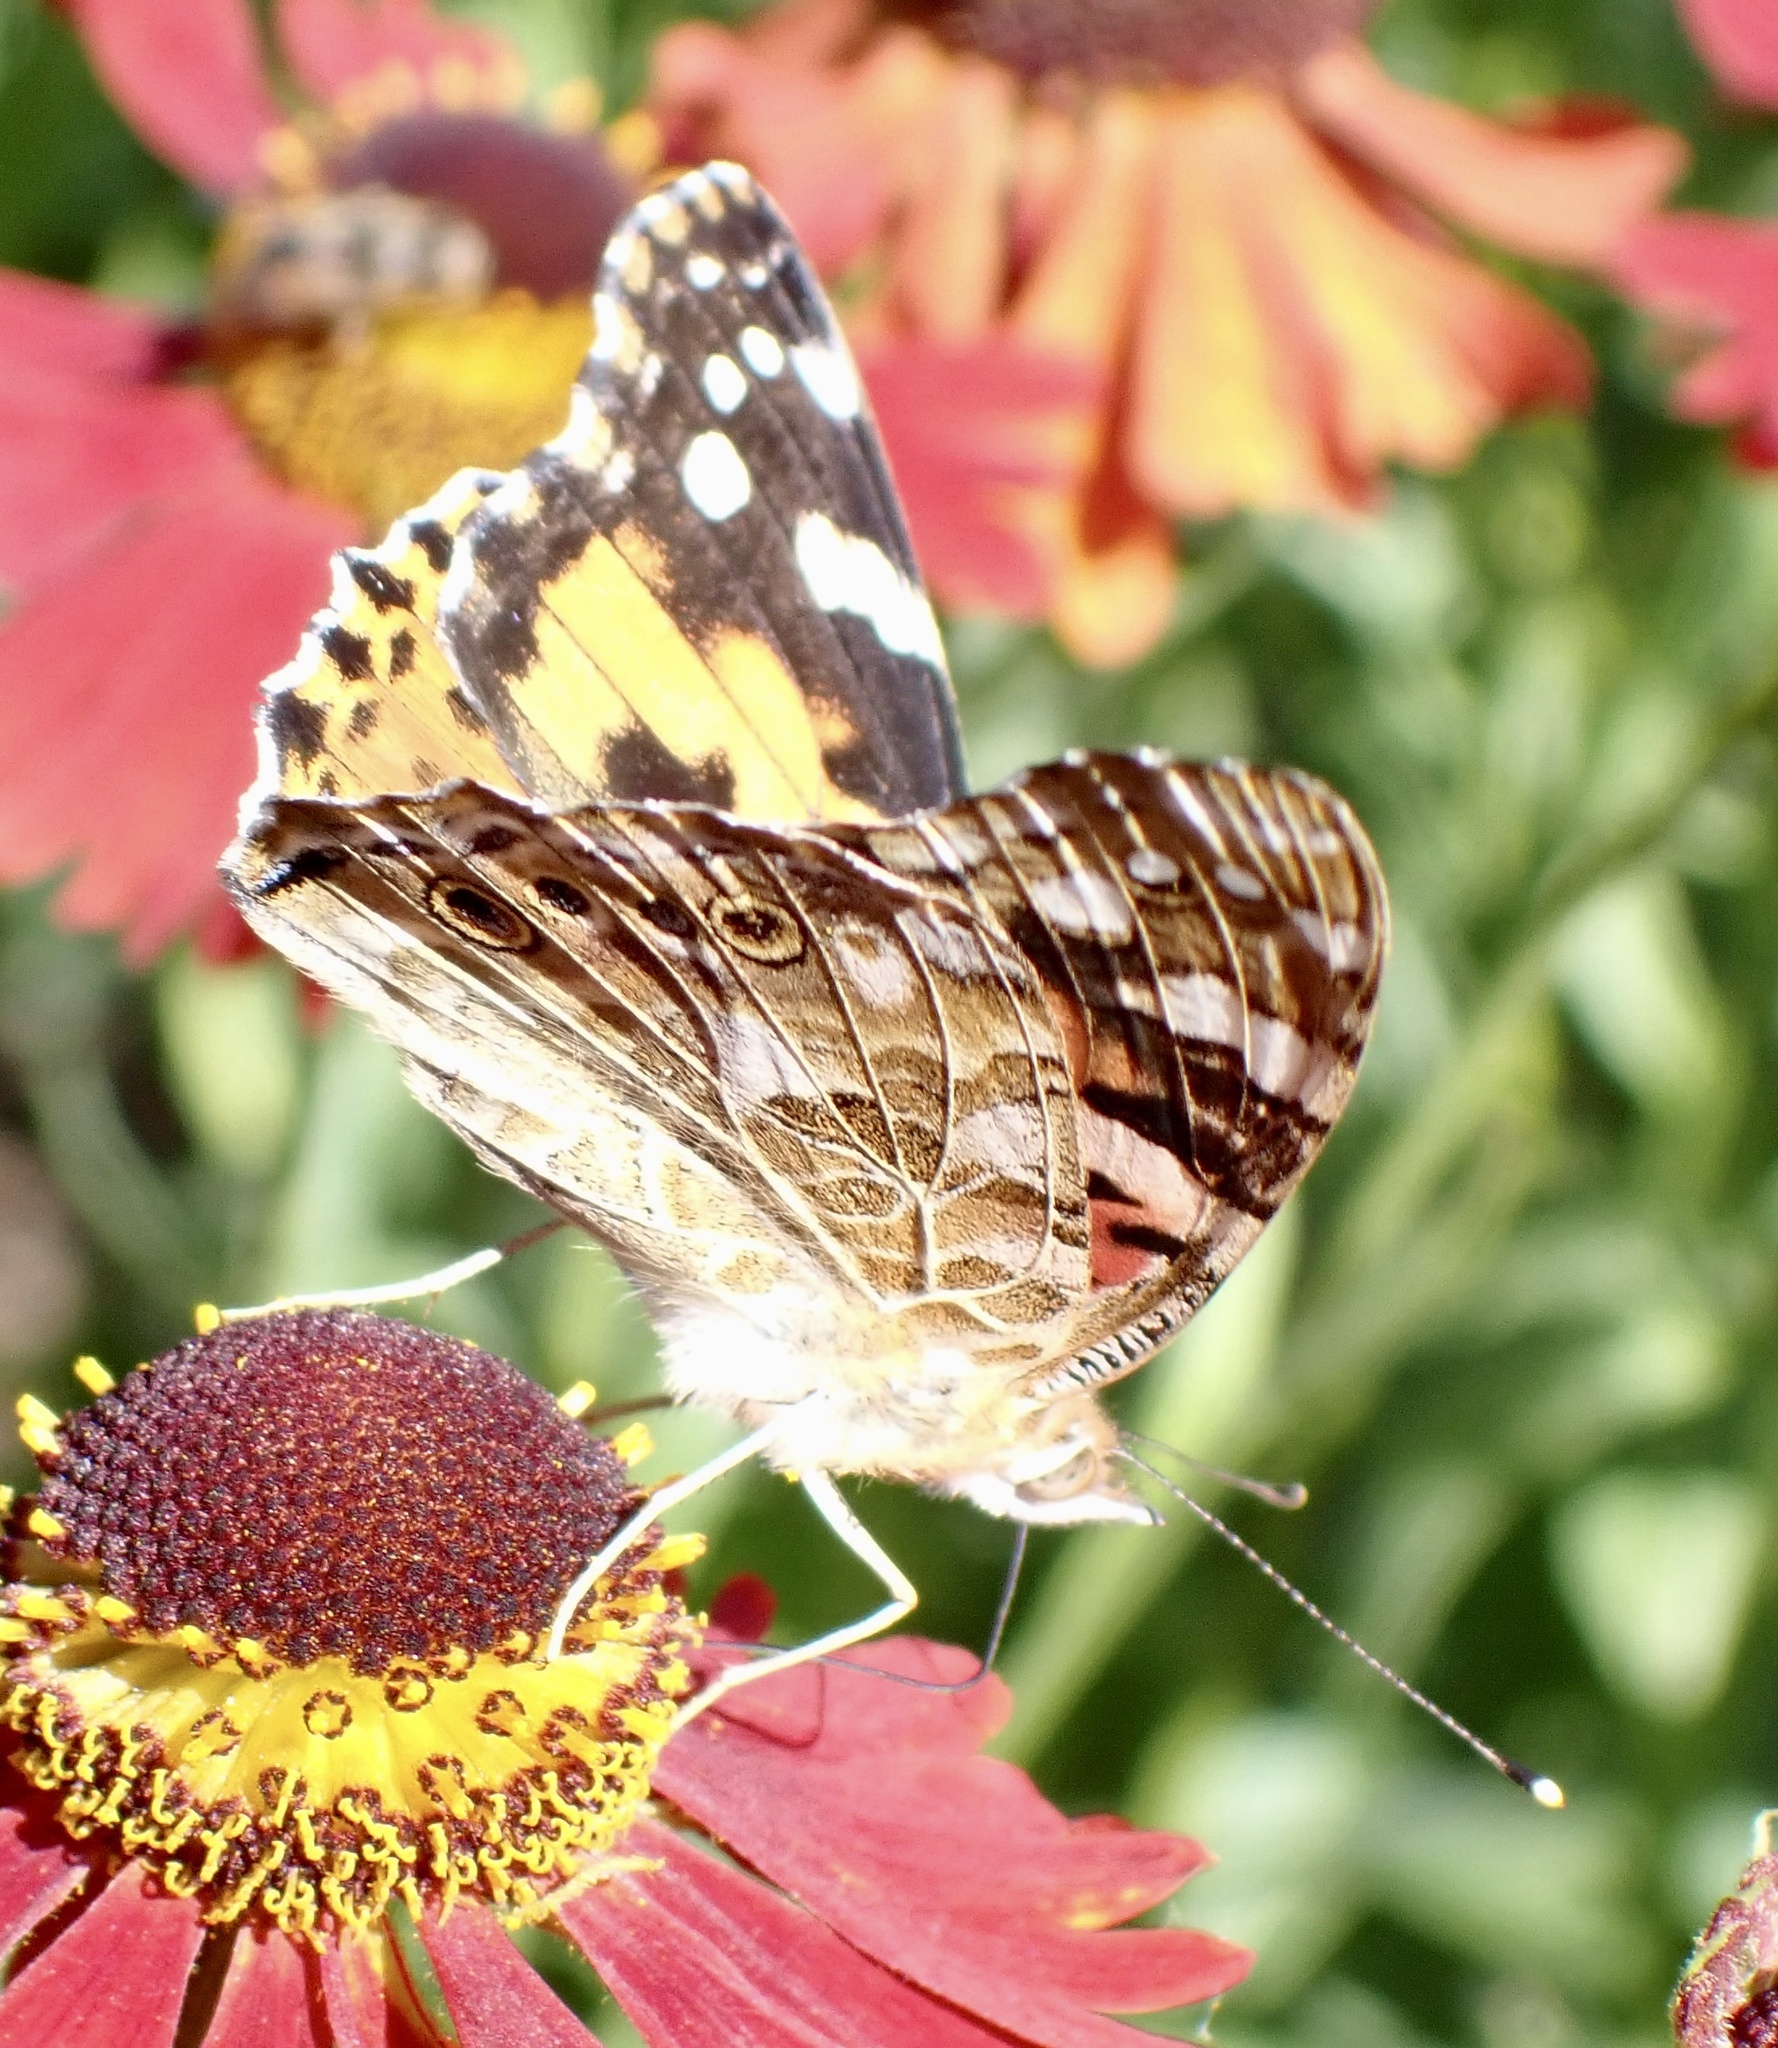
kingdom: Animalia
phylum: Arthropoda
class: Insecta
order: Lepidoptera
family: Nymphalidae
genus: Vanessa
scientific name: Vanessa cardui
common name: Painted lady
